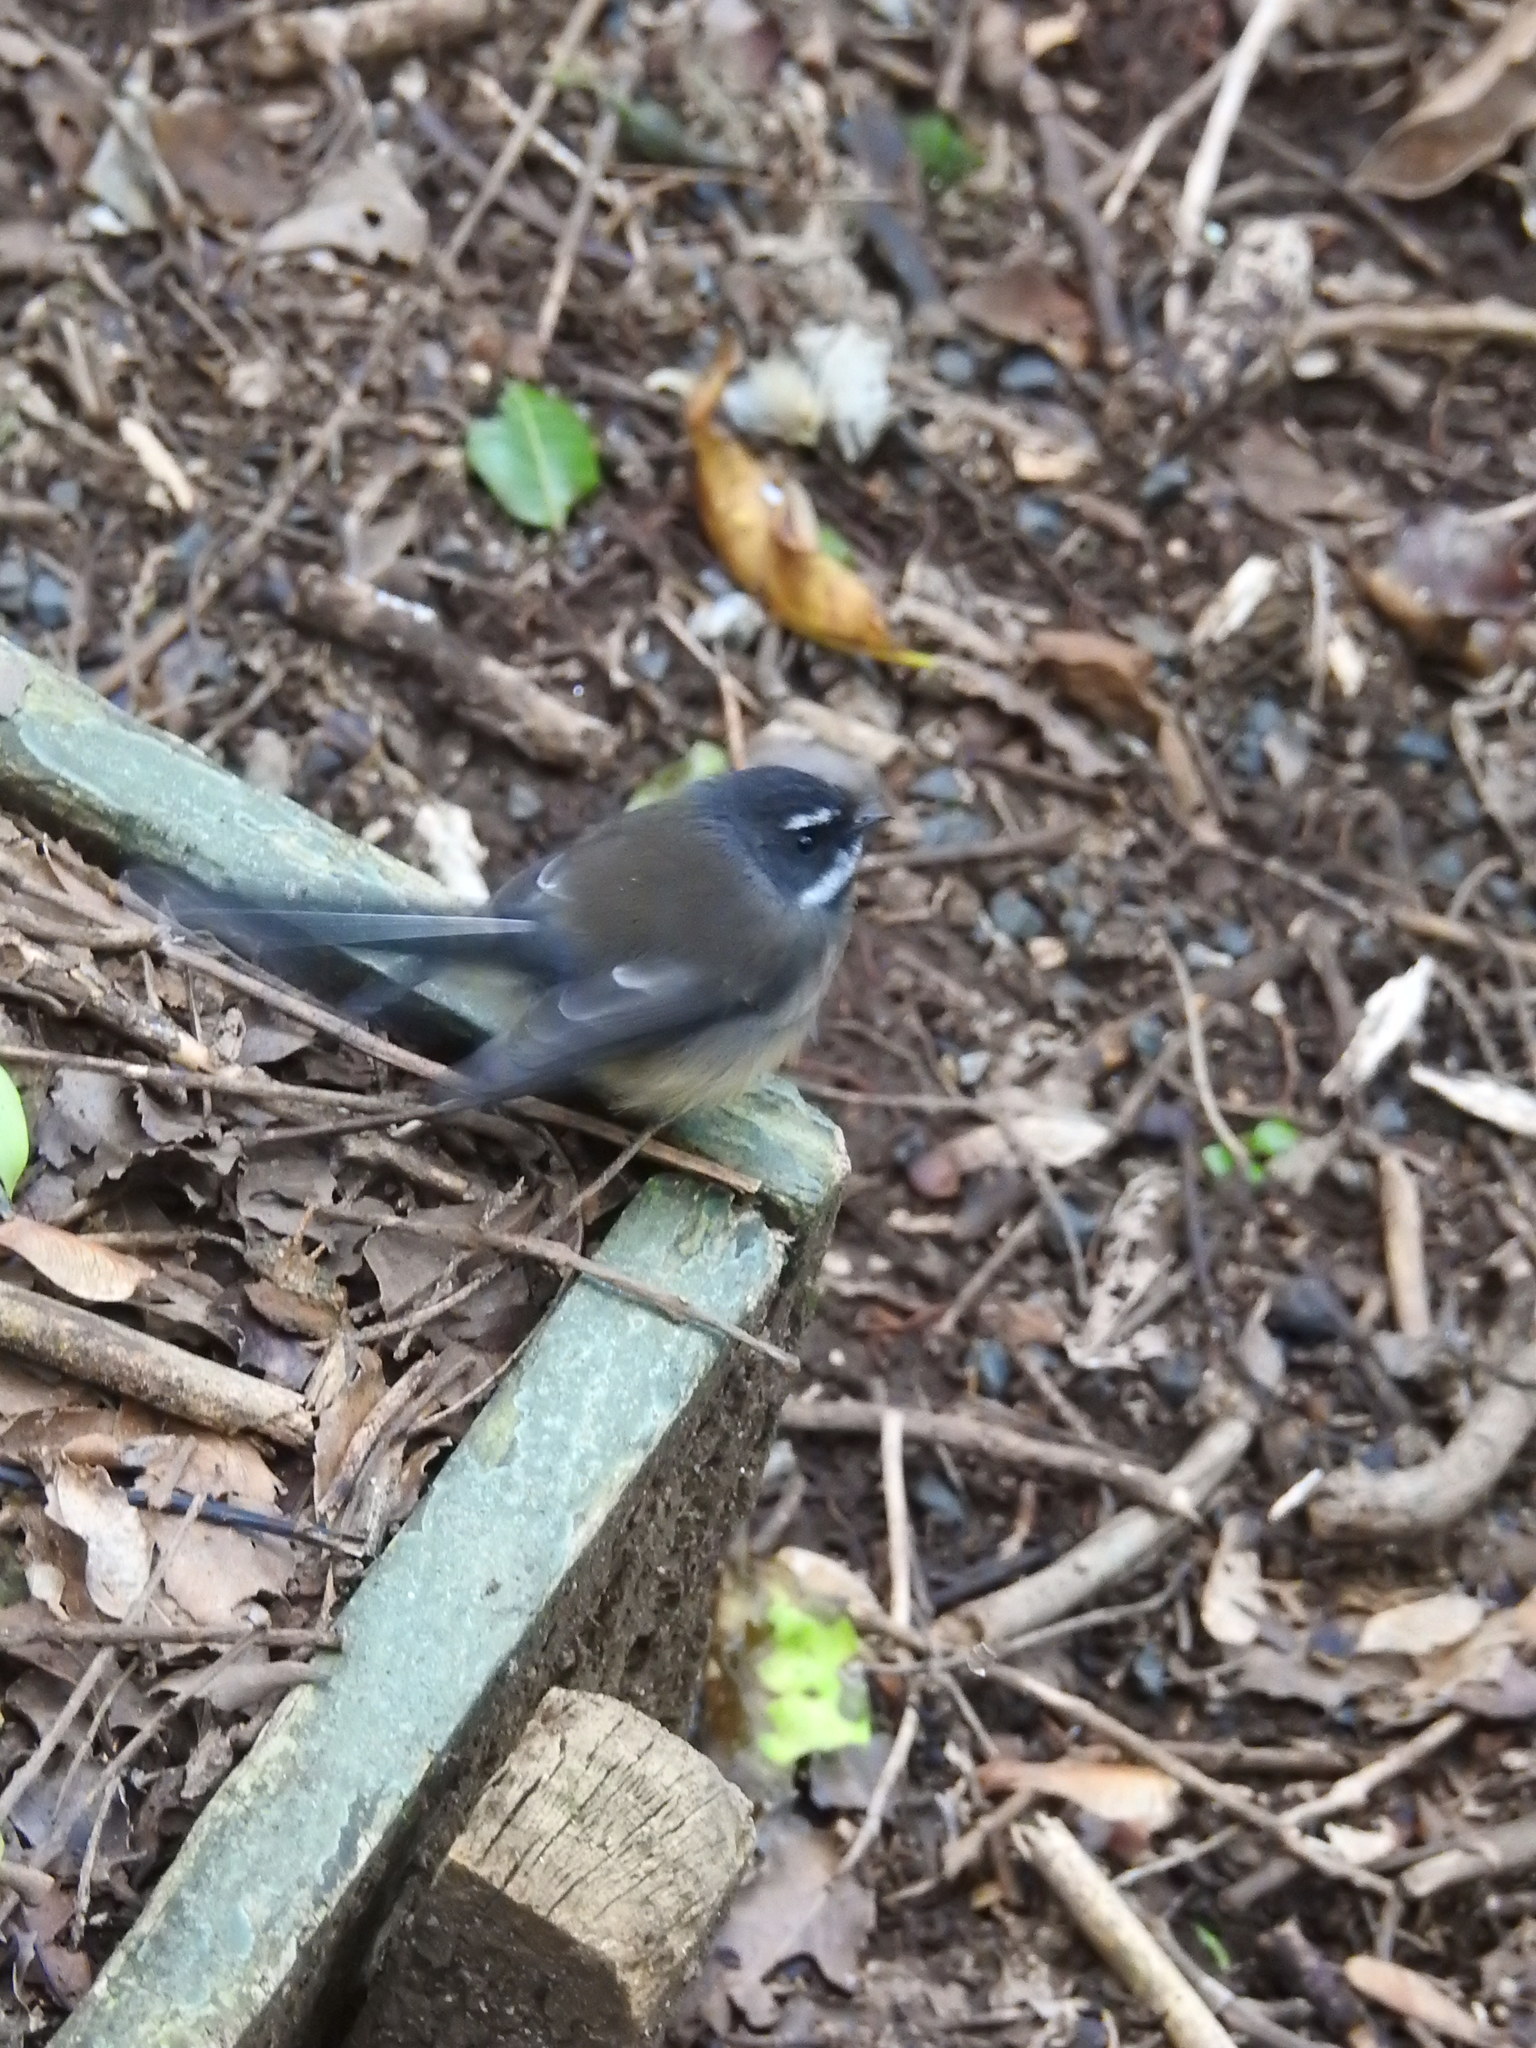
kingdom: Animalia
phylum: Chordata
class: Aves
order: Passeriformes
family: Rhipiduridae
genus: Rhipidura
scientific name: Rhipidura fuliginosa
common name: New zealand fantail
